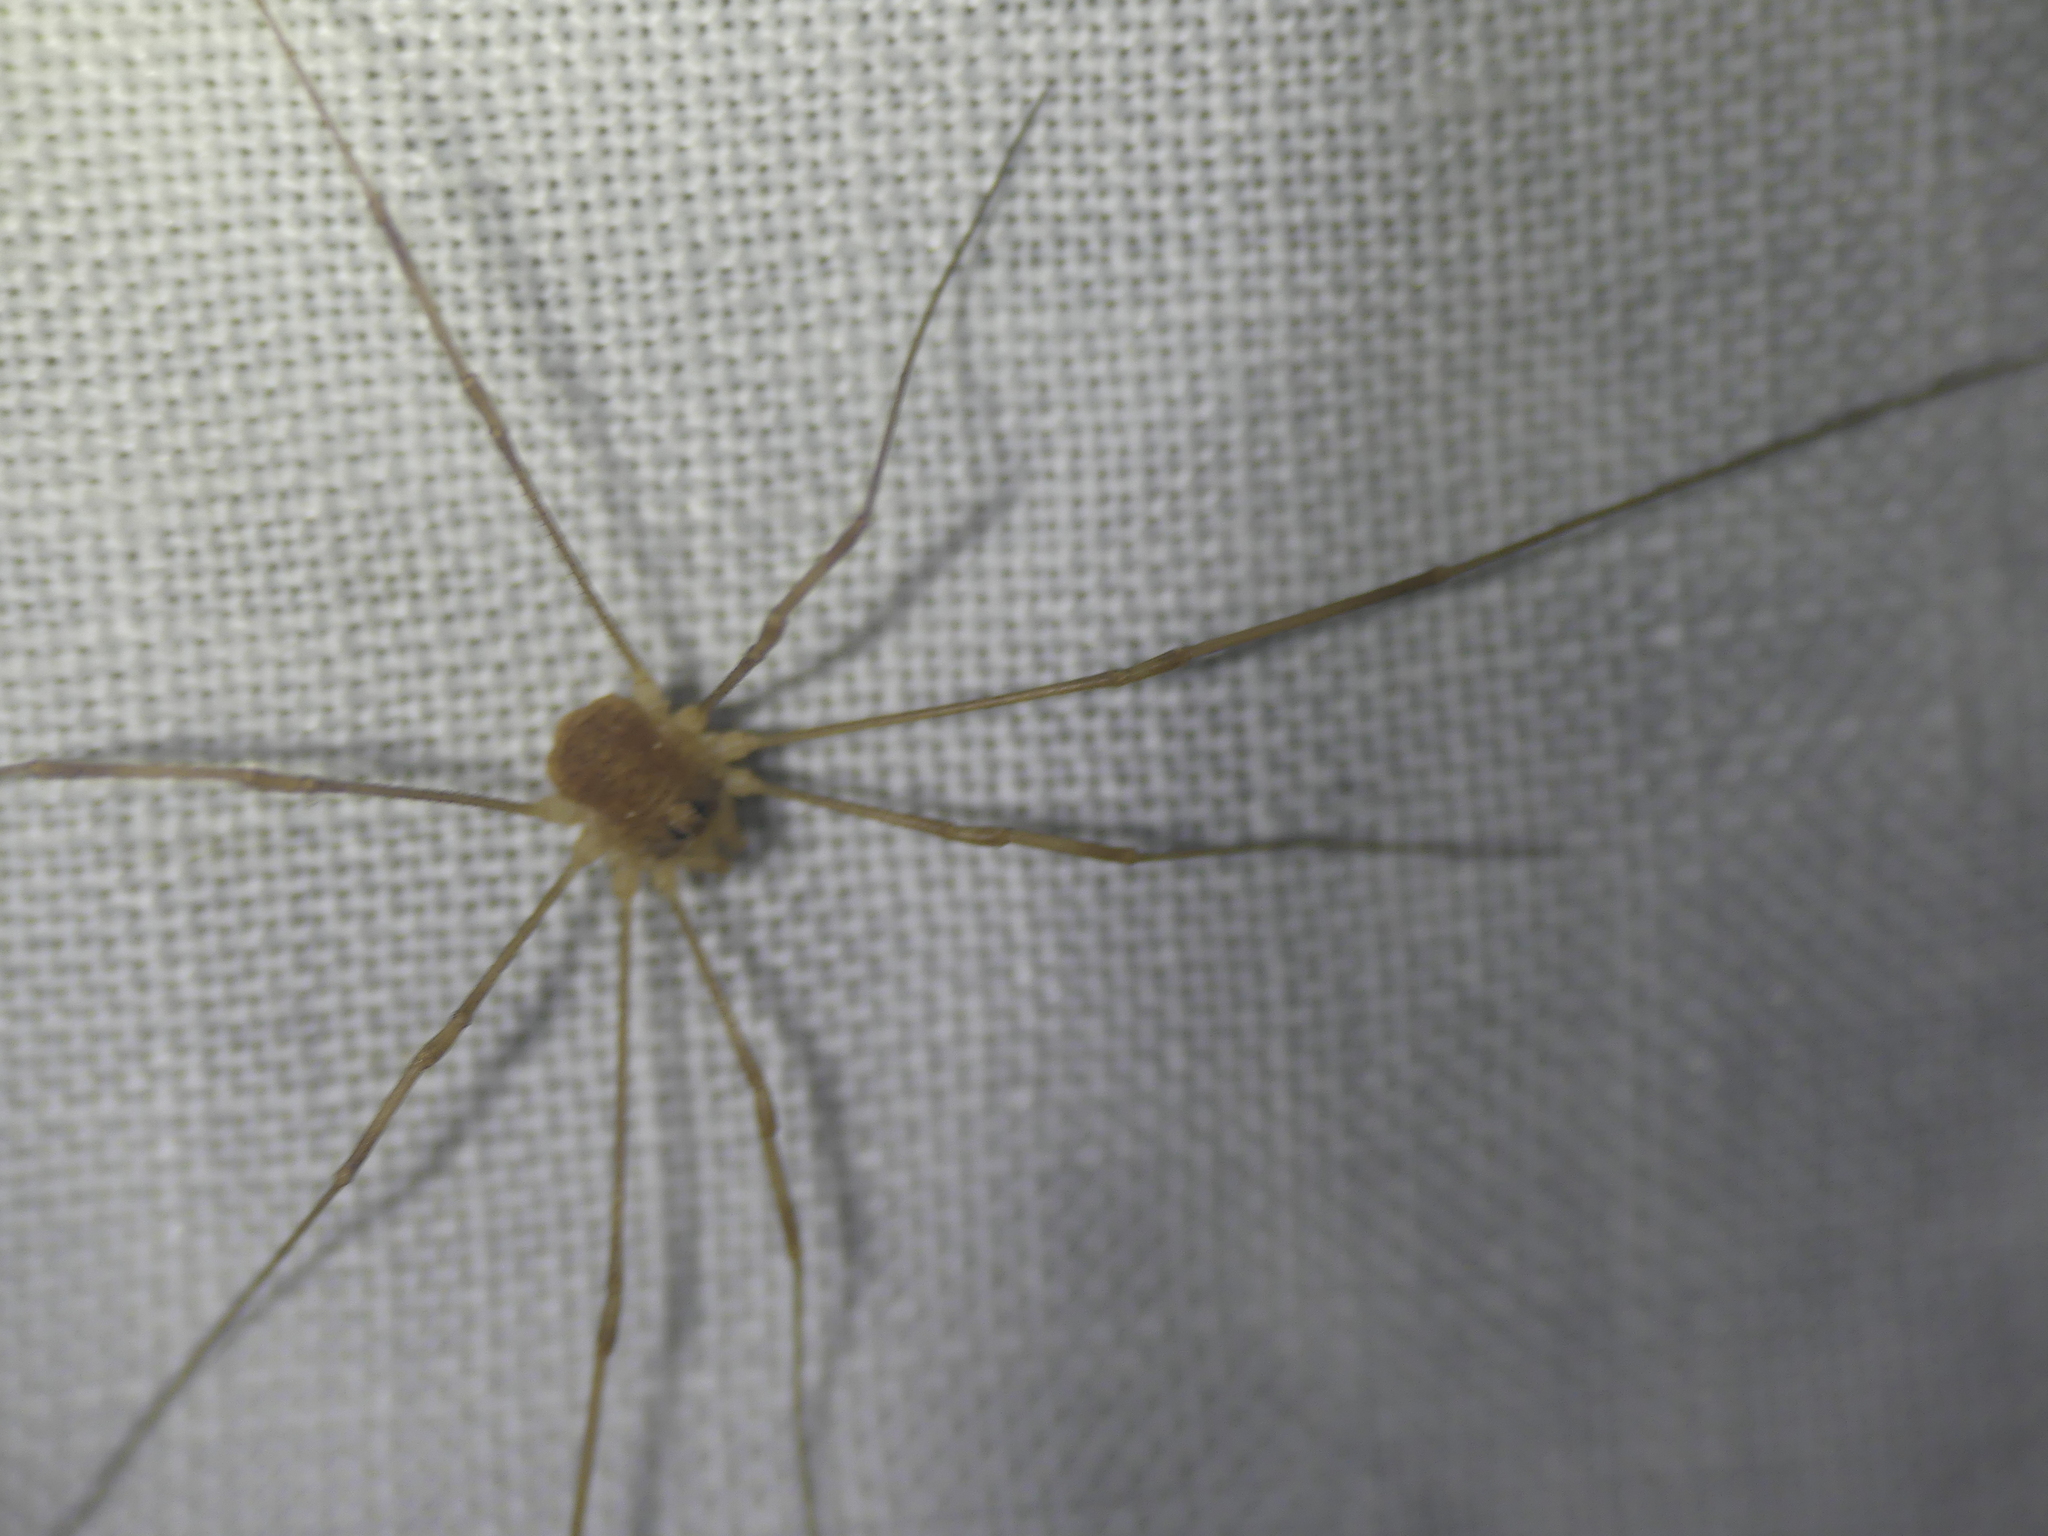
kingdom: Animalia
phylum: Arthropoda
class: Arachnida
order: Opiliones
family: Phalangiidae
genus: Rilaena
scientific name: Rilaena triangularis
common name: Spring harvestman
